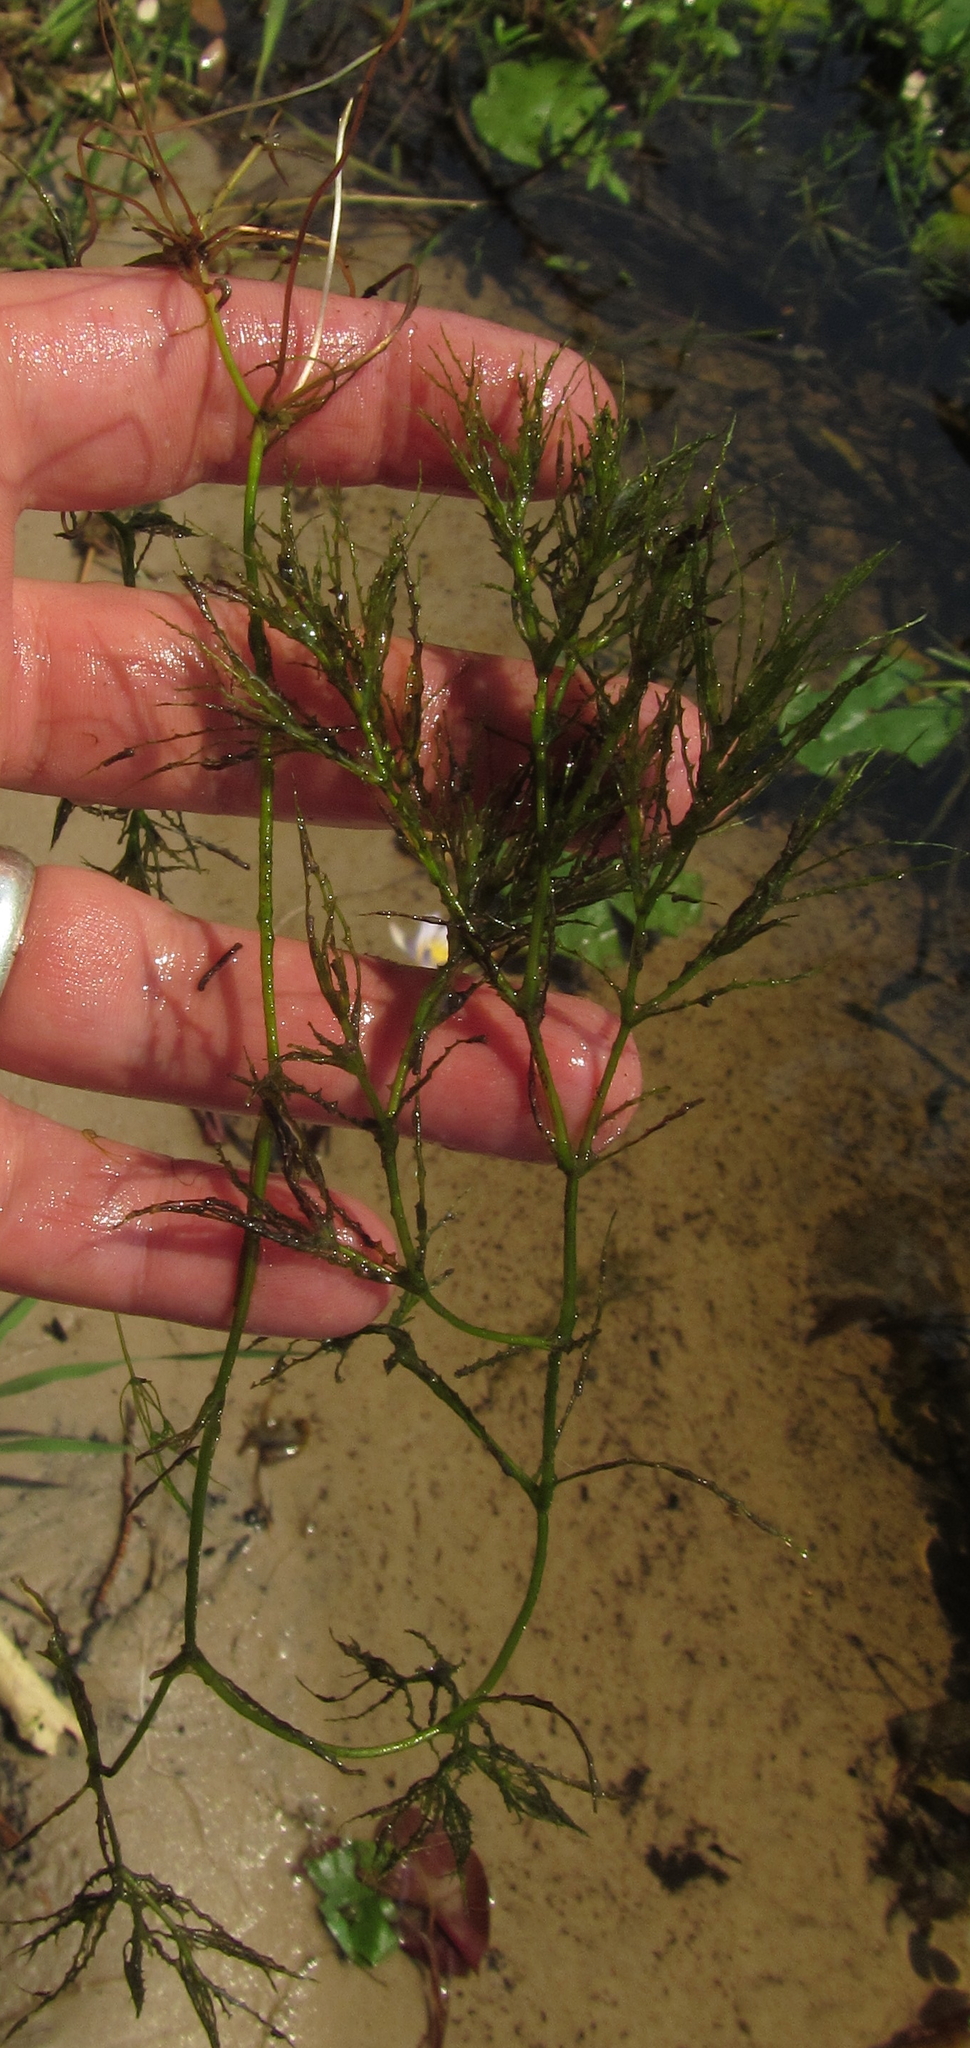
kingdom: Plantae
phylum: Tracheophyta
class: Liliopsida
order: Alismatales
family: Hydrocharitaceae
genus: Najas
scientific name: Najas horrida
